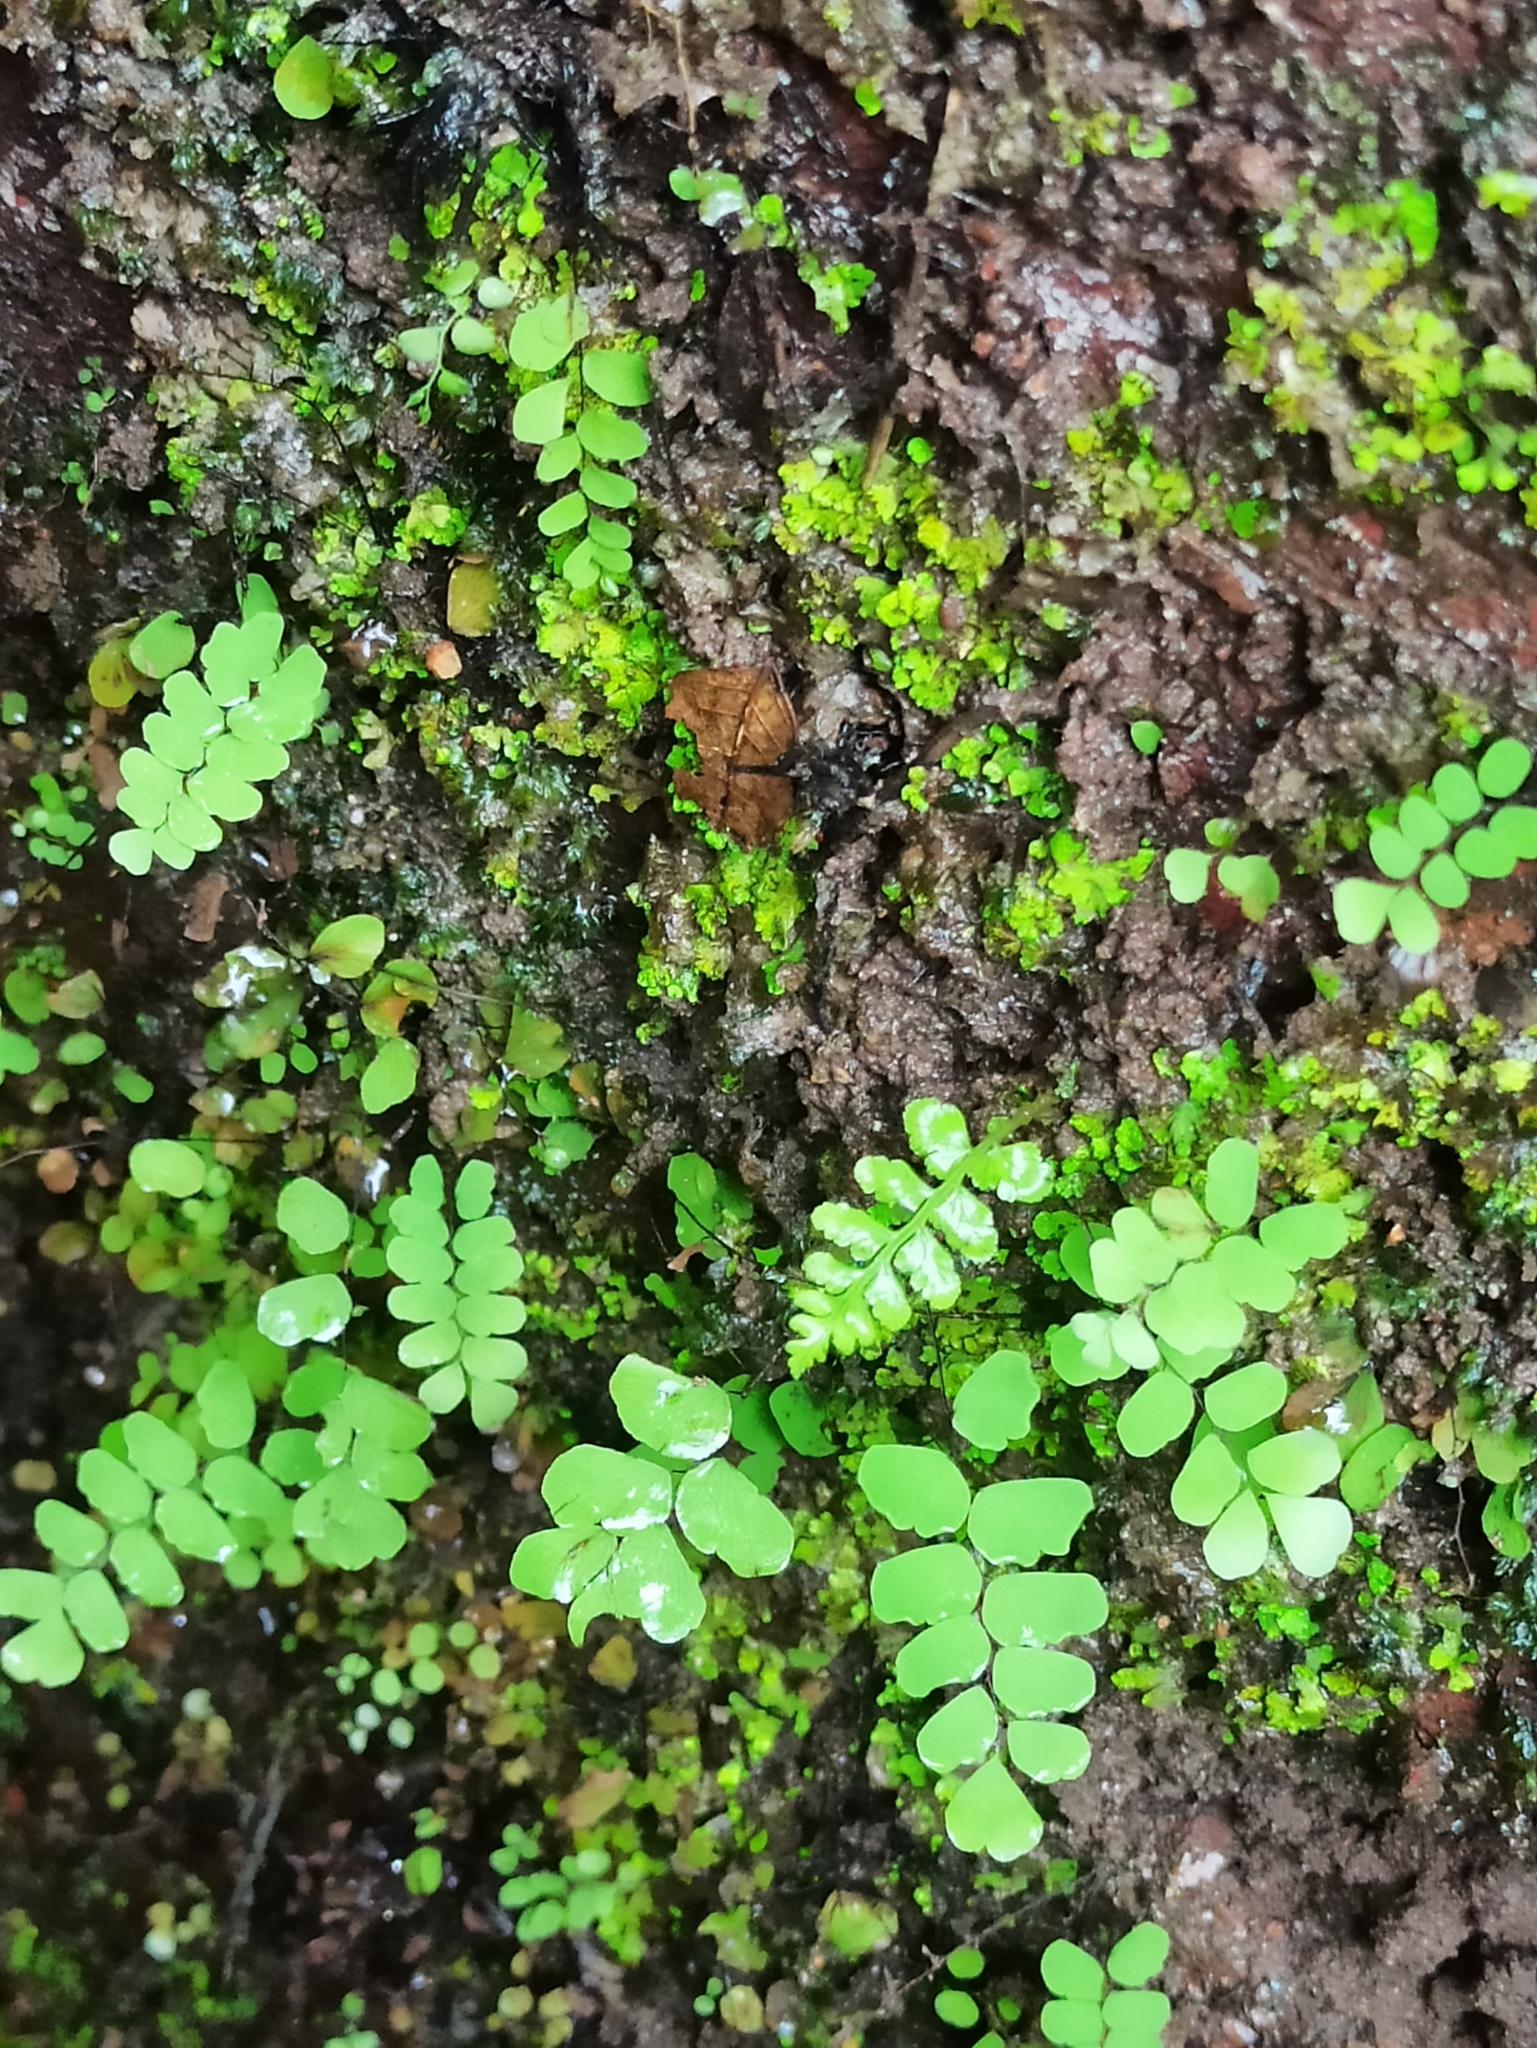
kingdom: Plantae
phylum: Tracheophyta
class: Polypodiopsida
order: Polypodiales
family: Pteridaceae
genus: Adiantum
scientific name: Adiantum philippense
